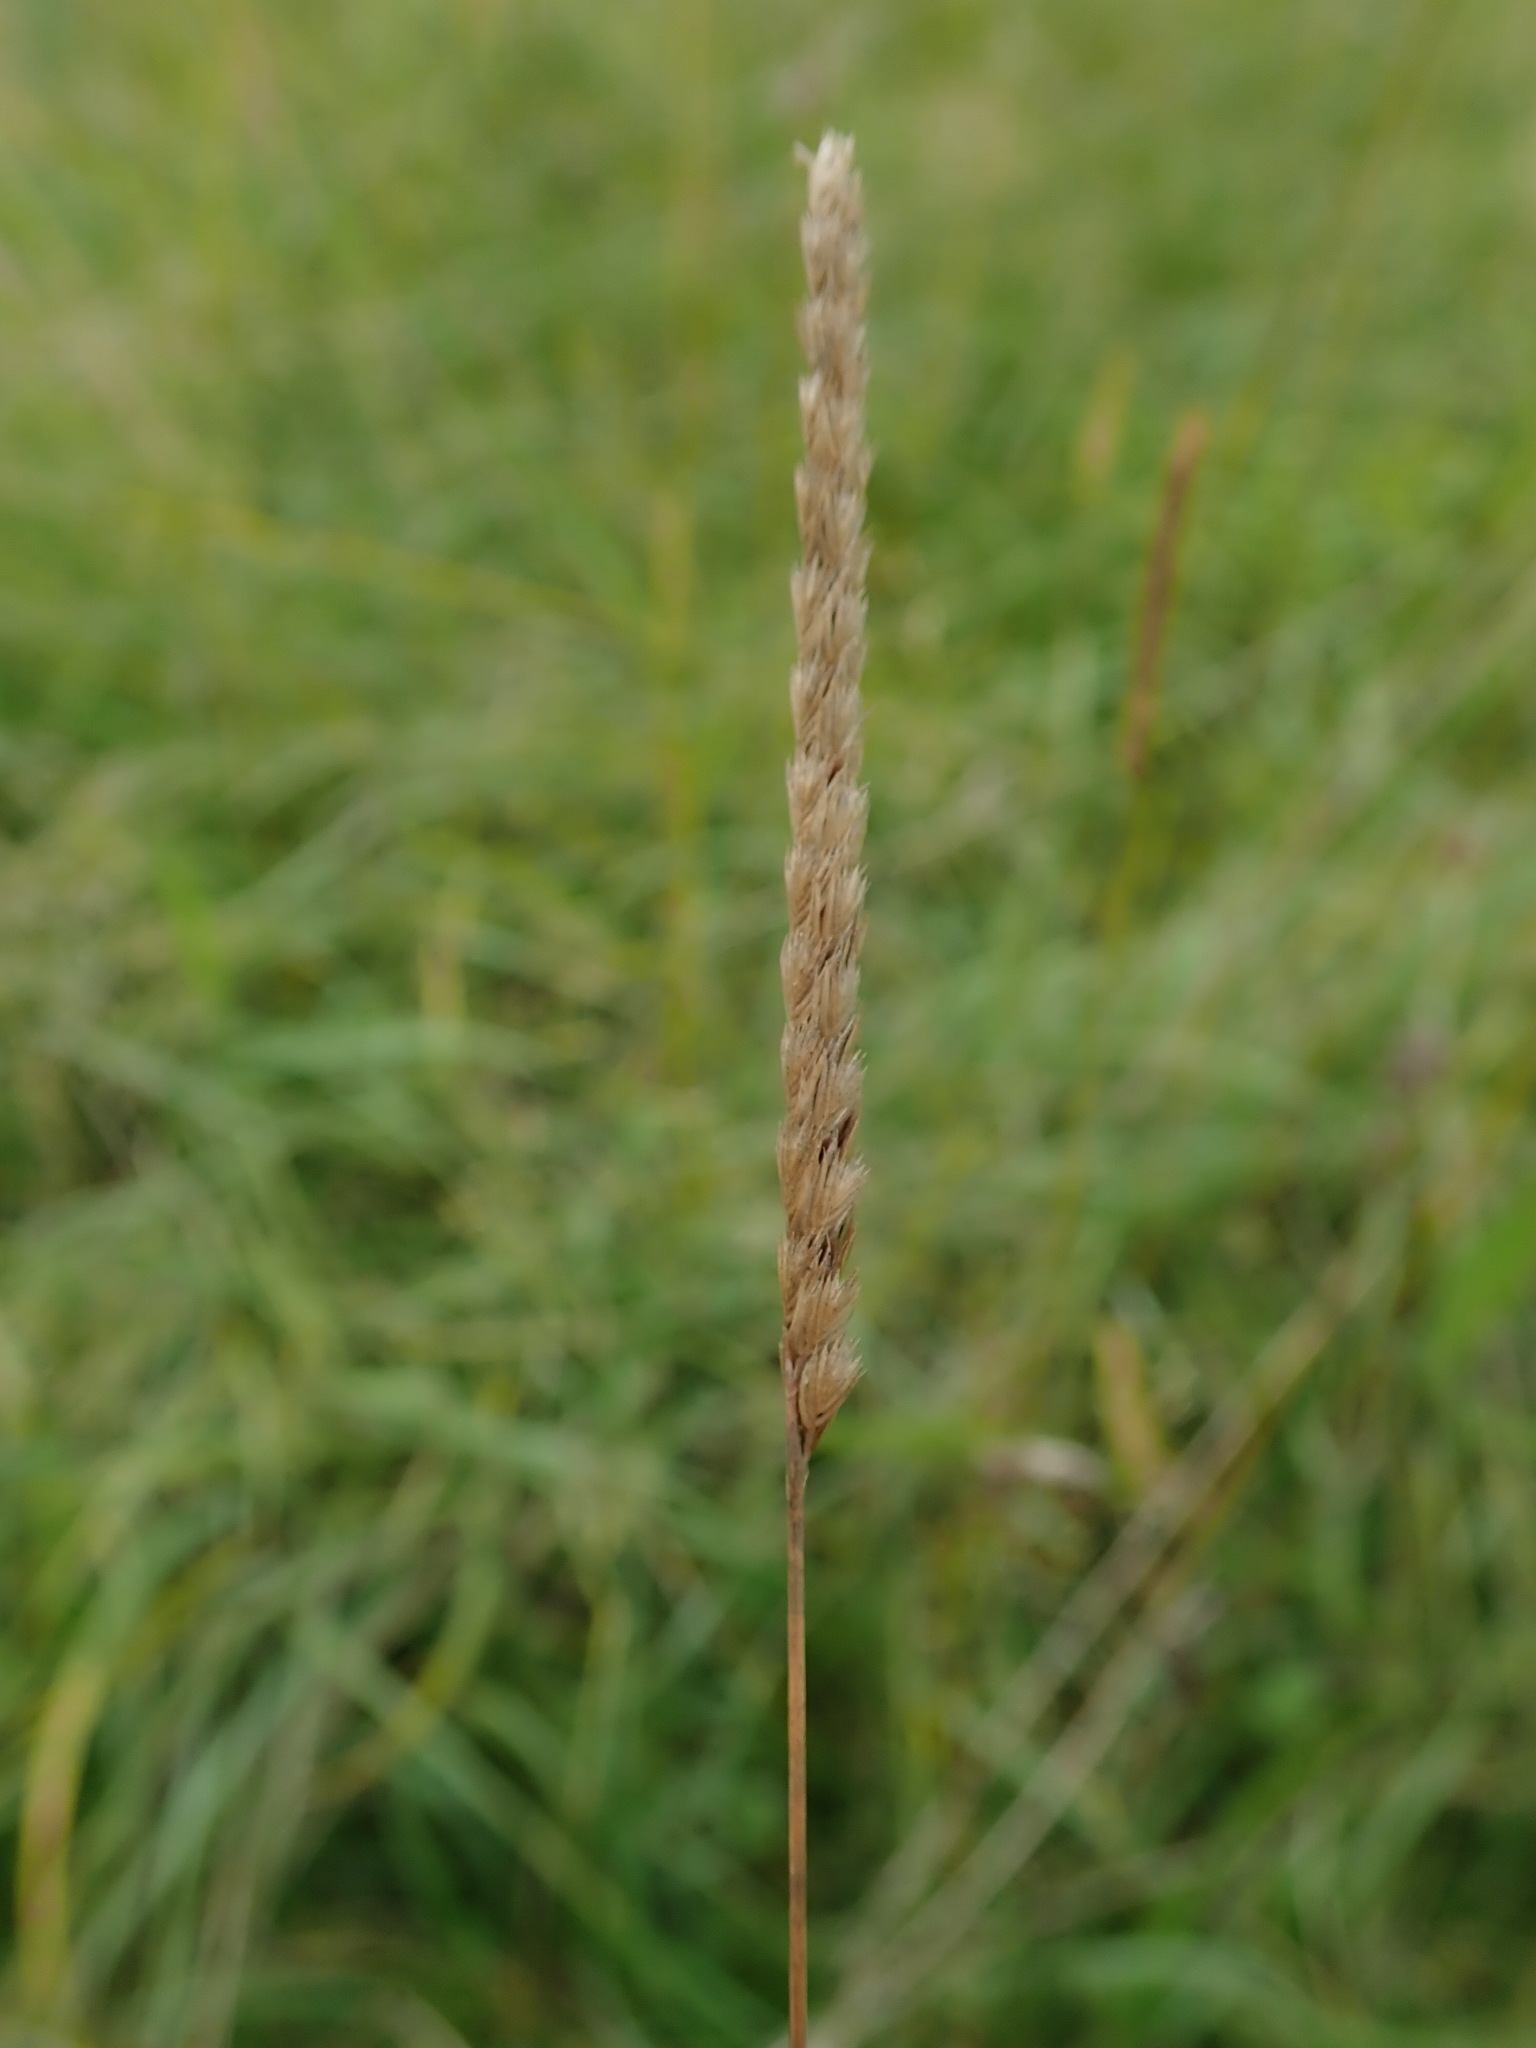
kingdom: Plantae
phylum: Tracheophyta
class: Liliopsida
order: Poales
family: Poaceae
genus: Cynosurus
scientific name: Cynosurus cristatus
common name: Crested dog's-tail
